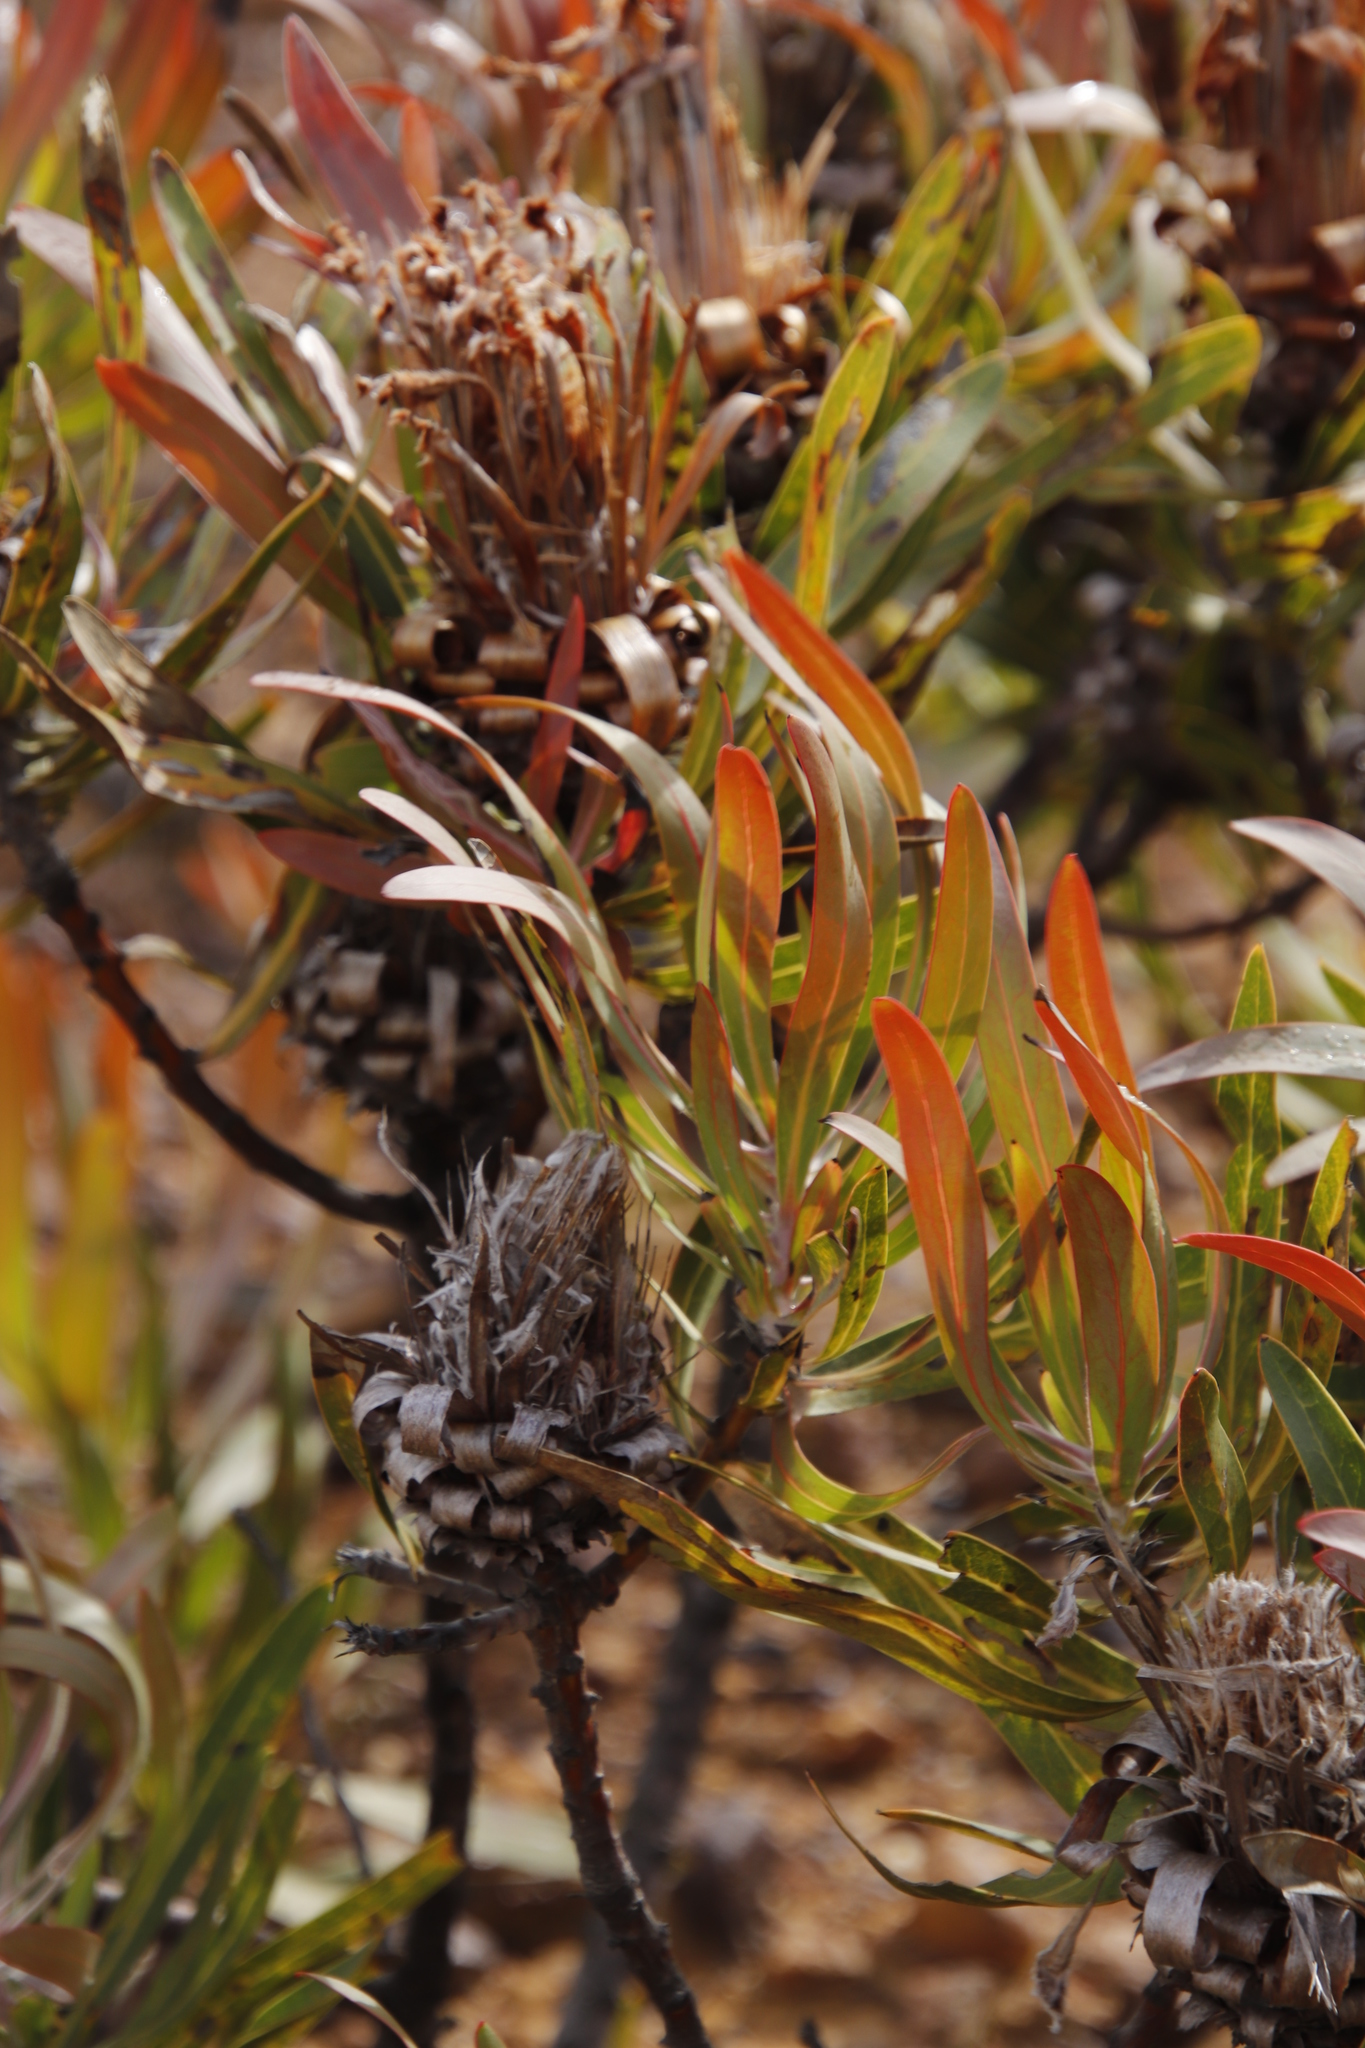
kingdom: Plantae
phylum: Tracheophyta
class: Magnoliopsida
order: Proteales
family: Proteaceae
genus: Protea
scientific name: Protea
